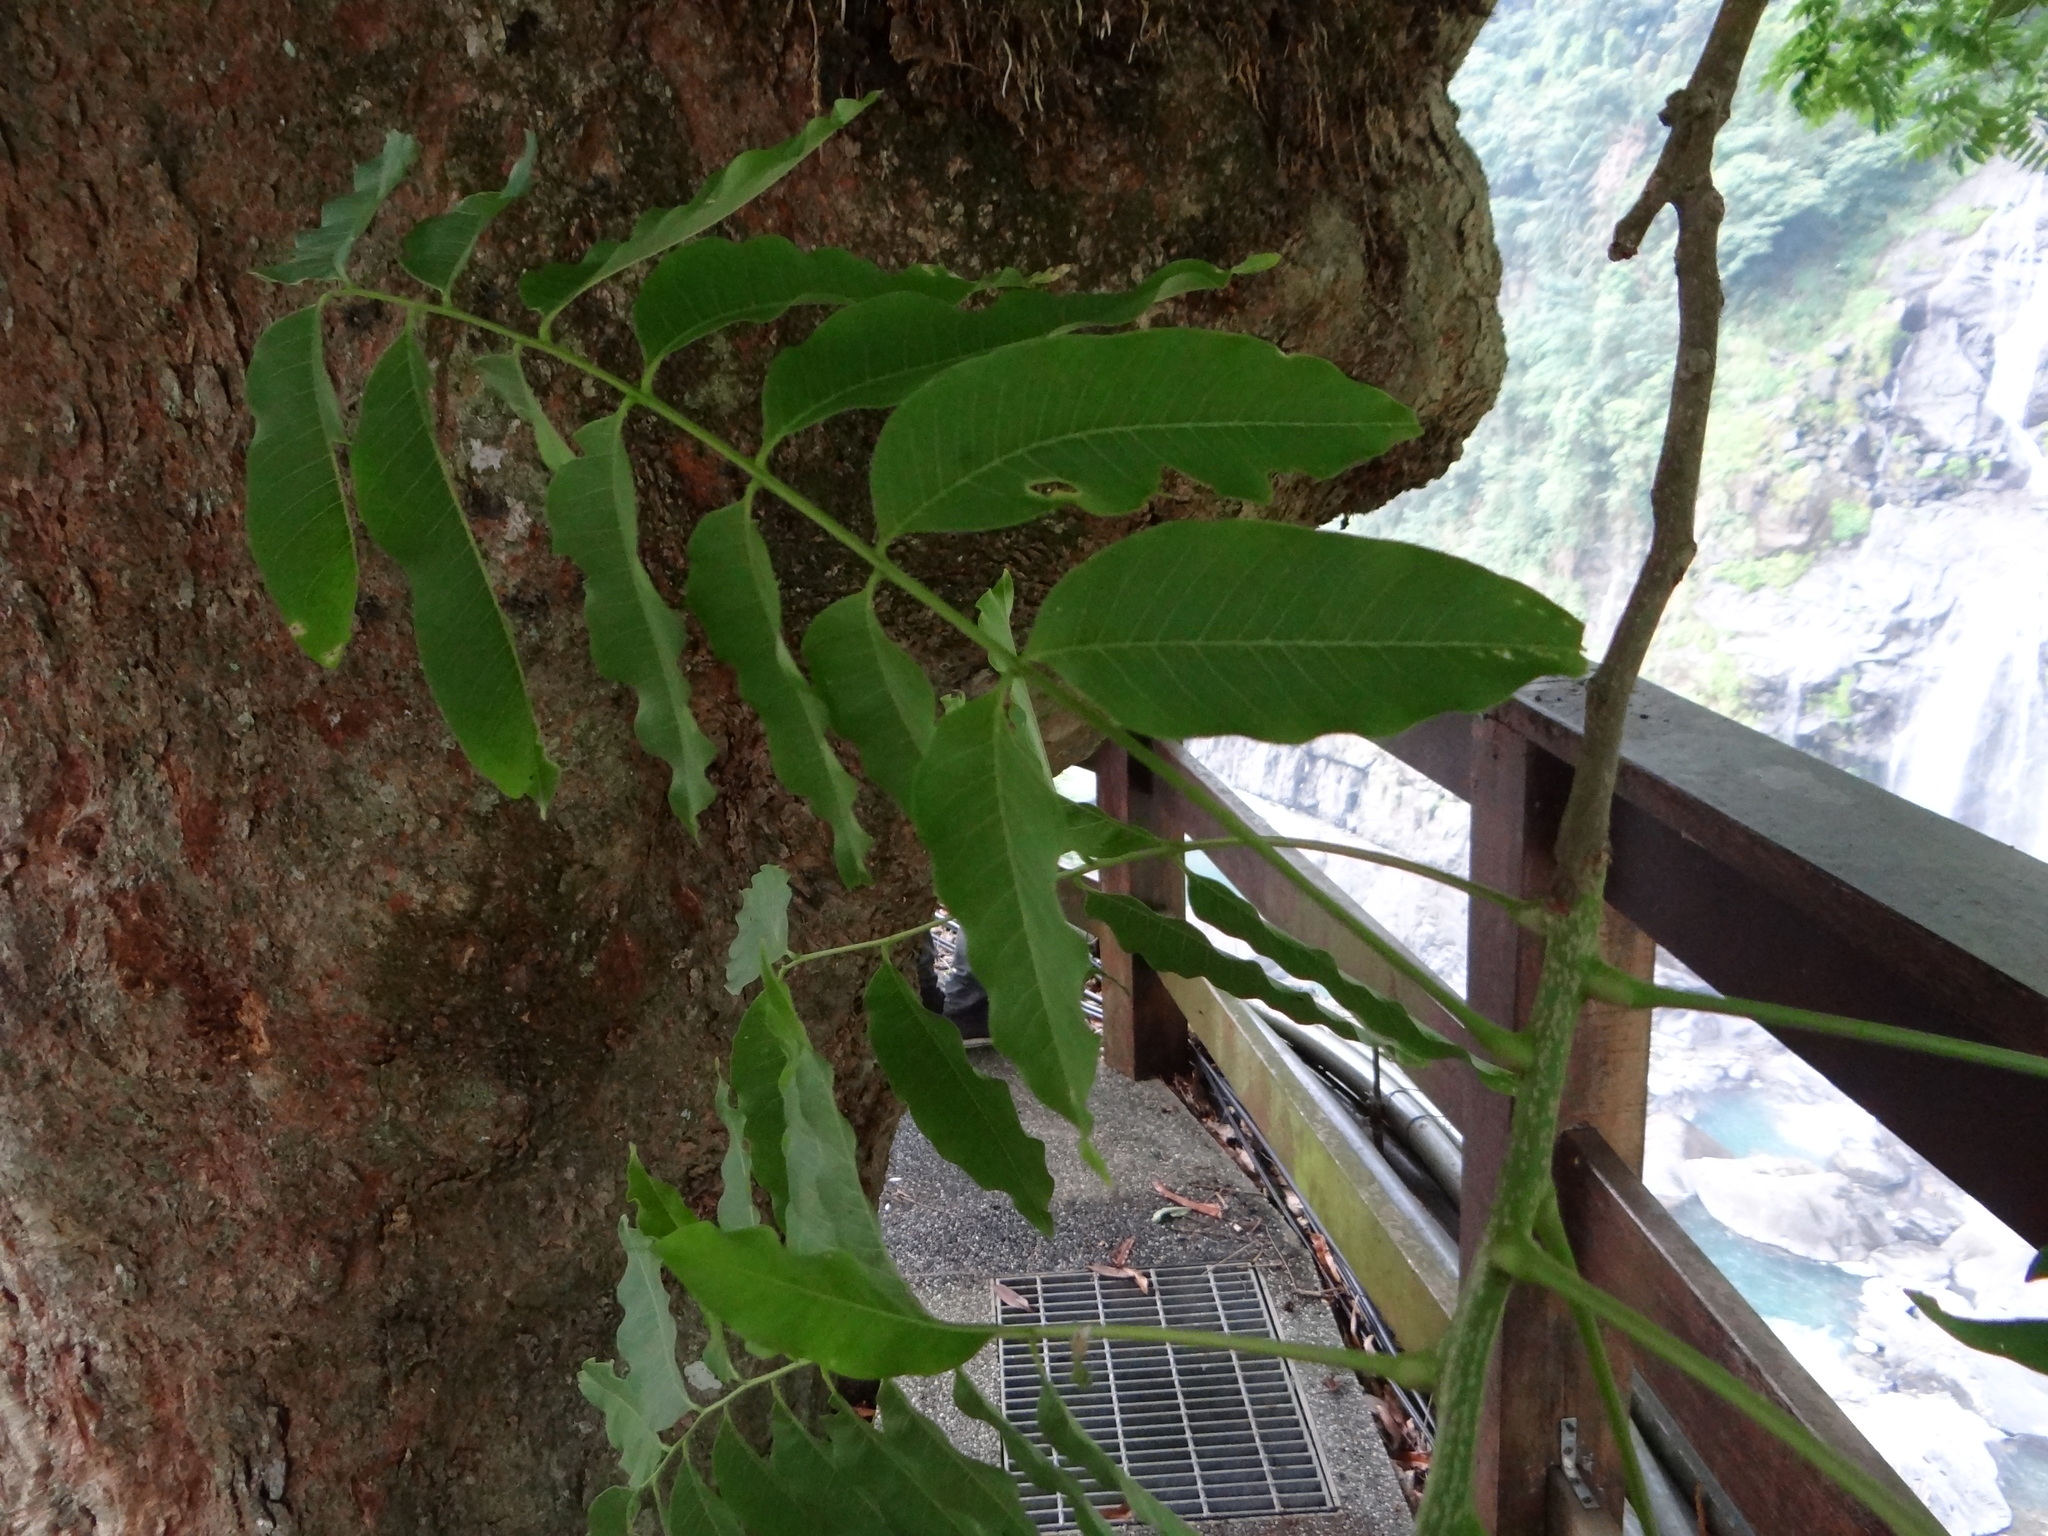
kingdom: Plantae
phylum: Tracheophyta
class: Magnoliopsida
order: Sapindales
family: Sapindaceae
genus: Sapindus
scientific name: Sapindus mukorossi
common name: Chinese soapberry
